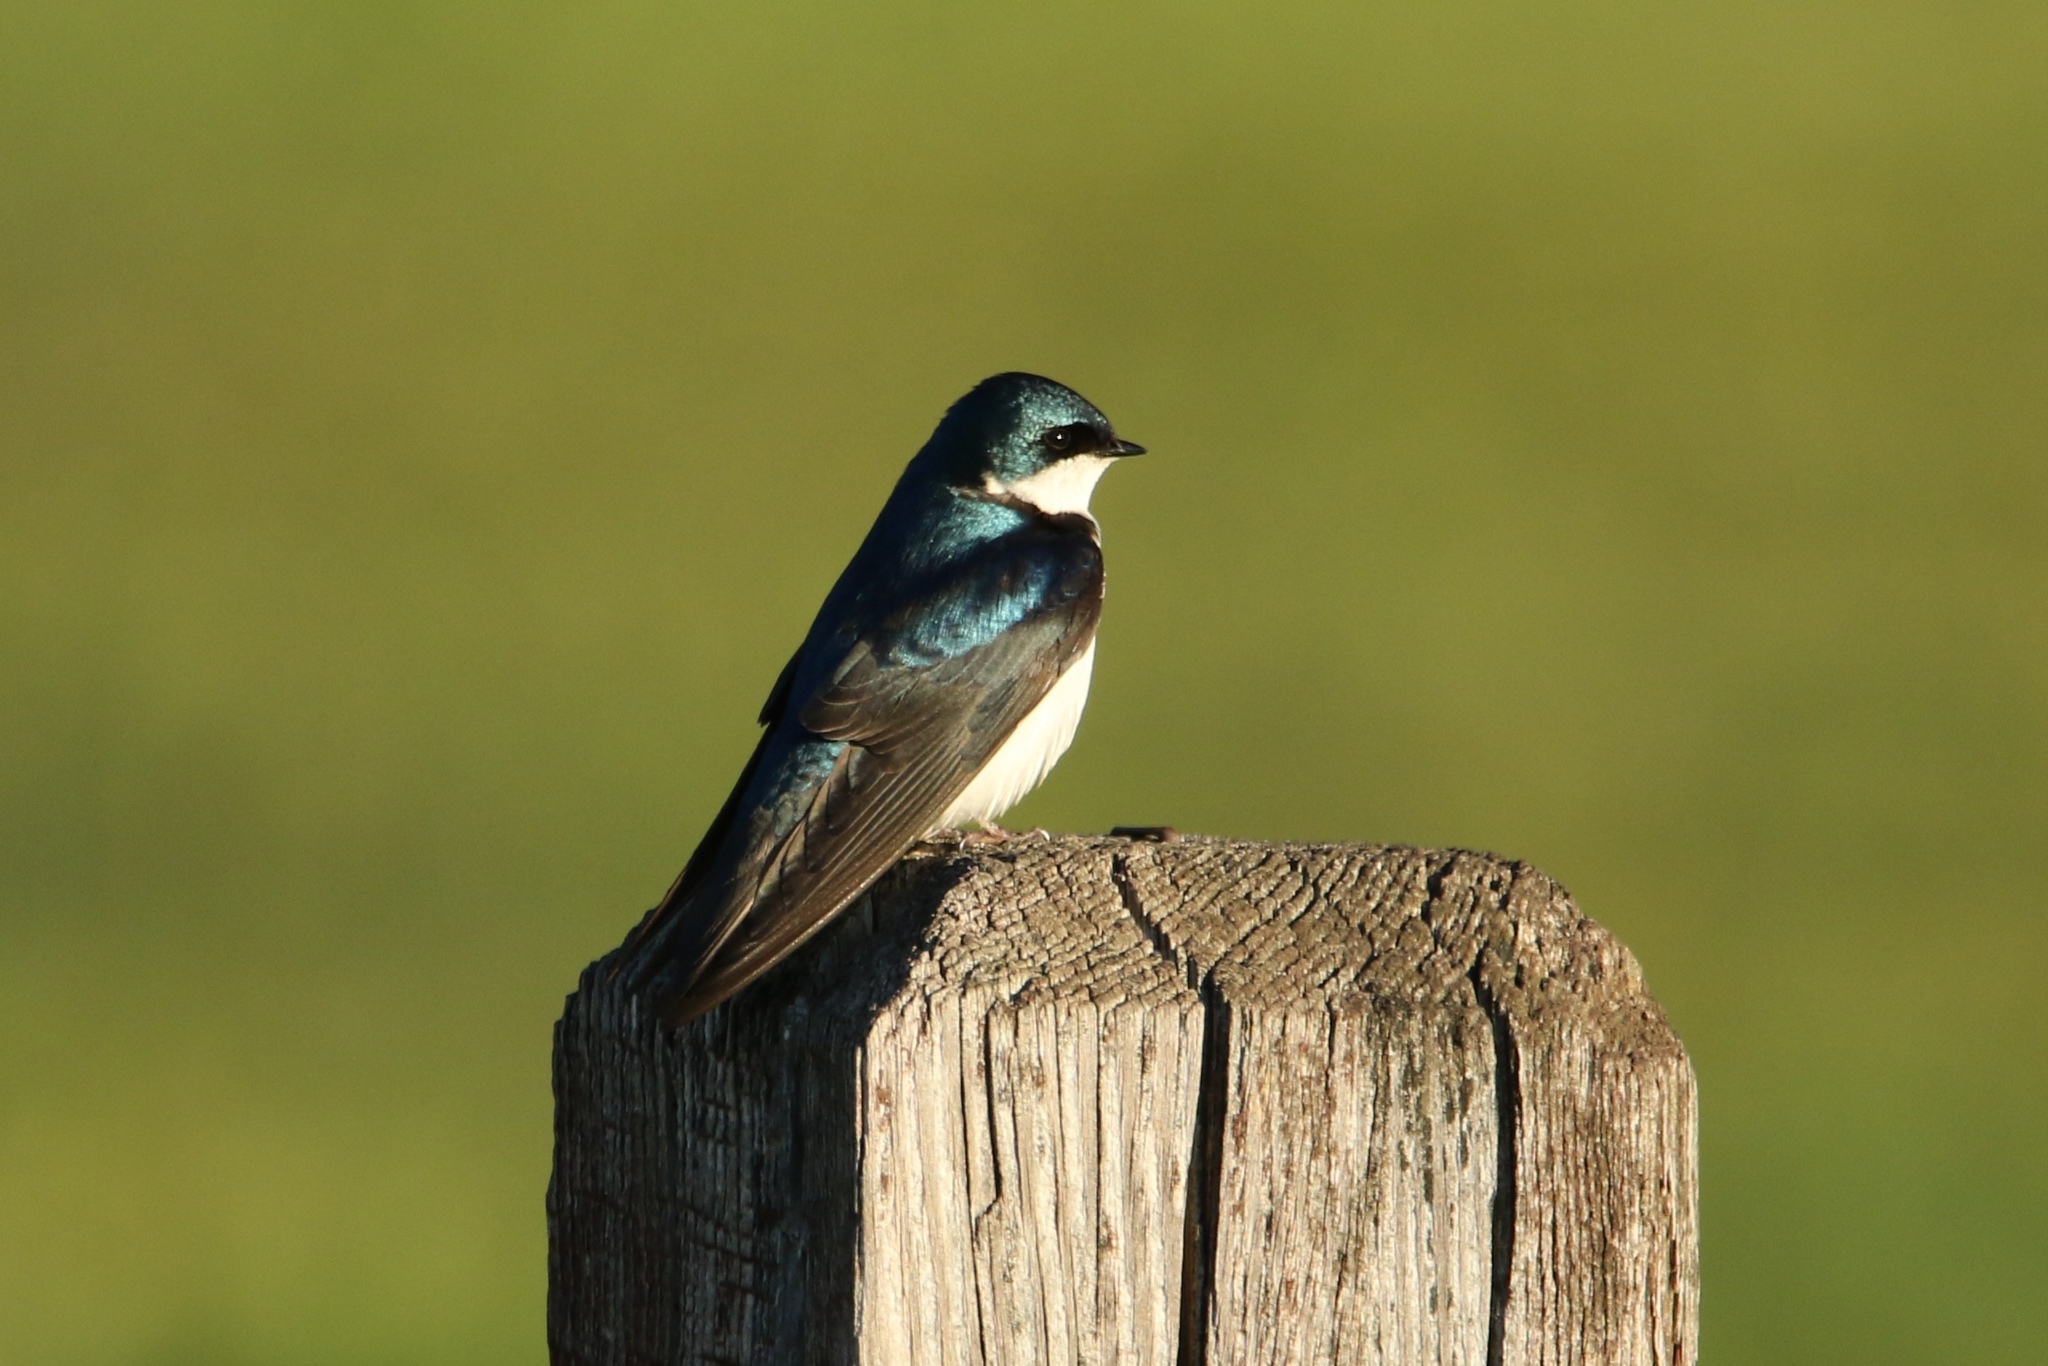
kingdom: Animalia
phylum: Chordata
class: Aves
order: Passeriformes
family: Hirundinidae
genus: Tachycineta
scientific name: Tachycineta bicolor
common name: Tree swallow
